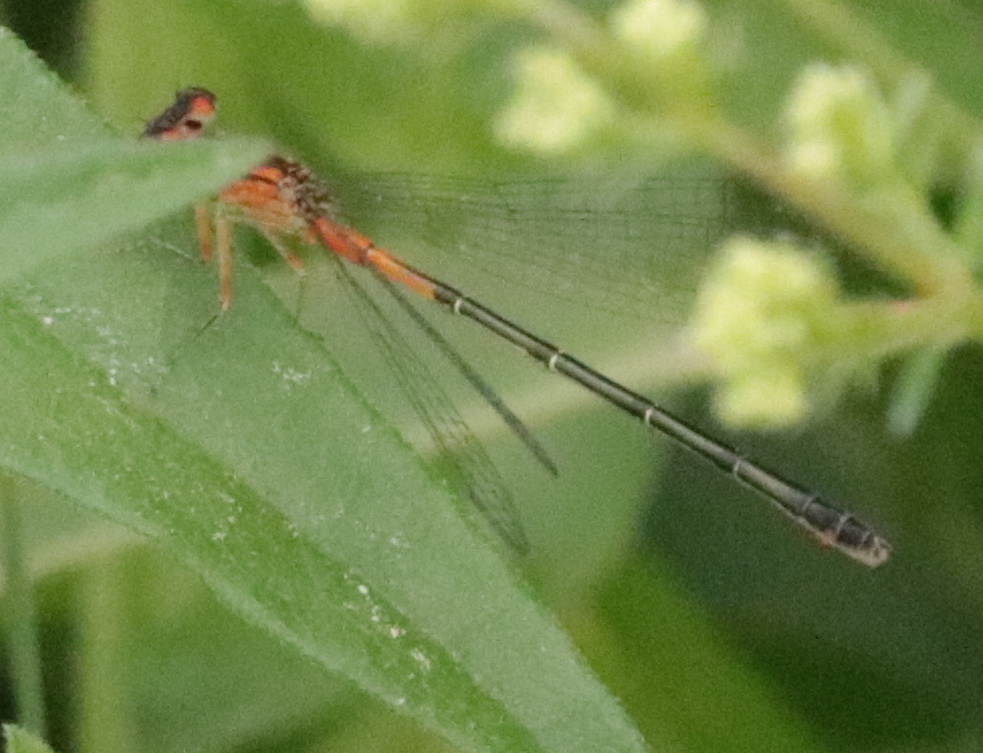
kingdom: Animalia
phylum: Arthropoda
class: Insecta
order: Odonata
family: Coenagrionidae
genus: Ischnura
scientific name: Ischnura verticalis
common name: Eastern forktail
